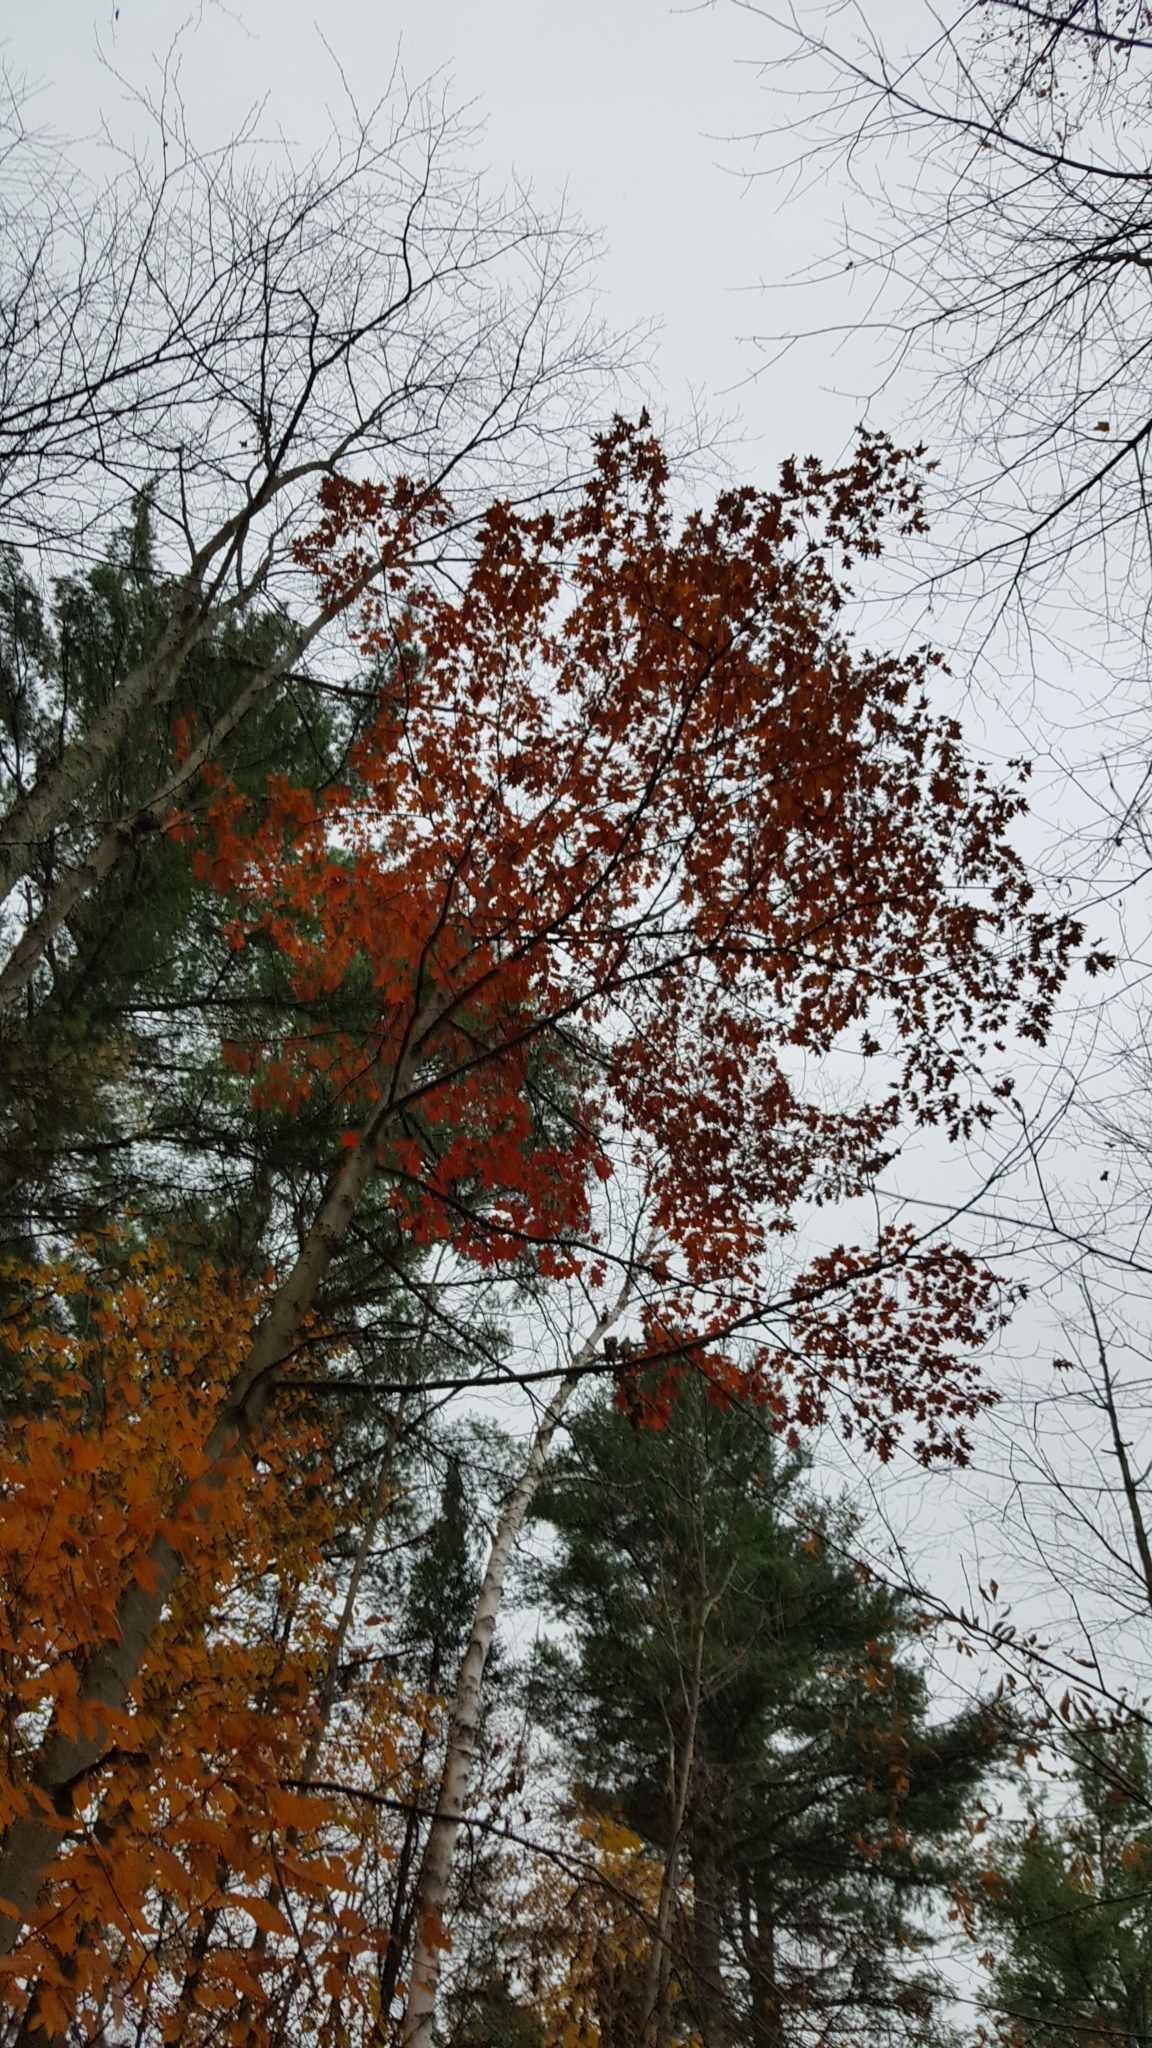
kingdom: Plantae
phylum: Tracheophyta
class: Magnoliopsida
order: Fagales
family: Fagaceae
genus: Quercus
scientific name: Quercus rubra
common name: Red oak
